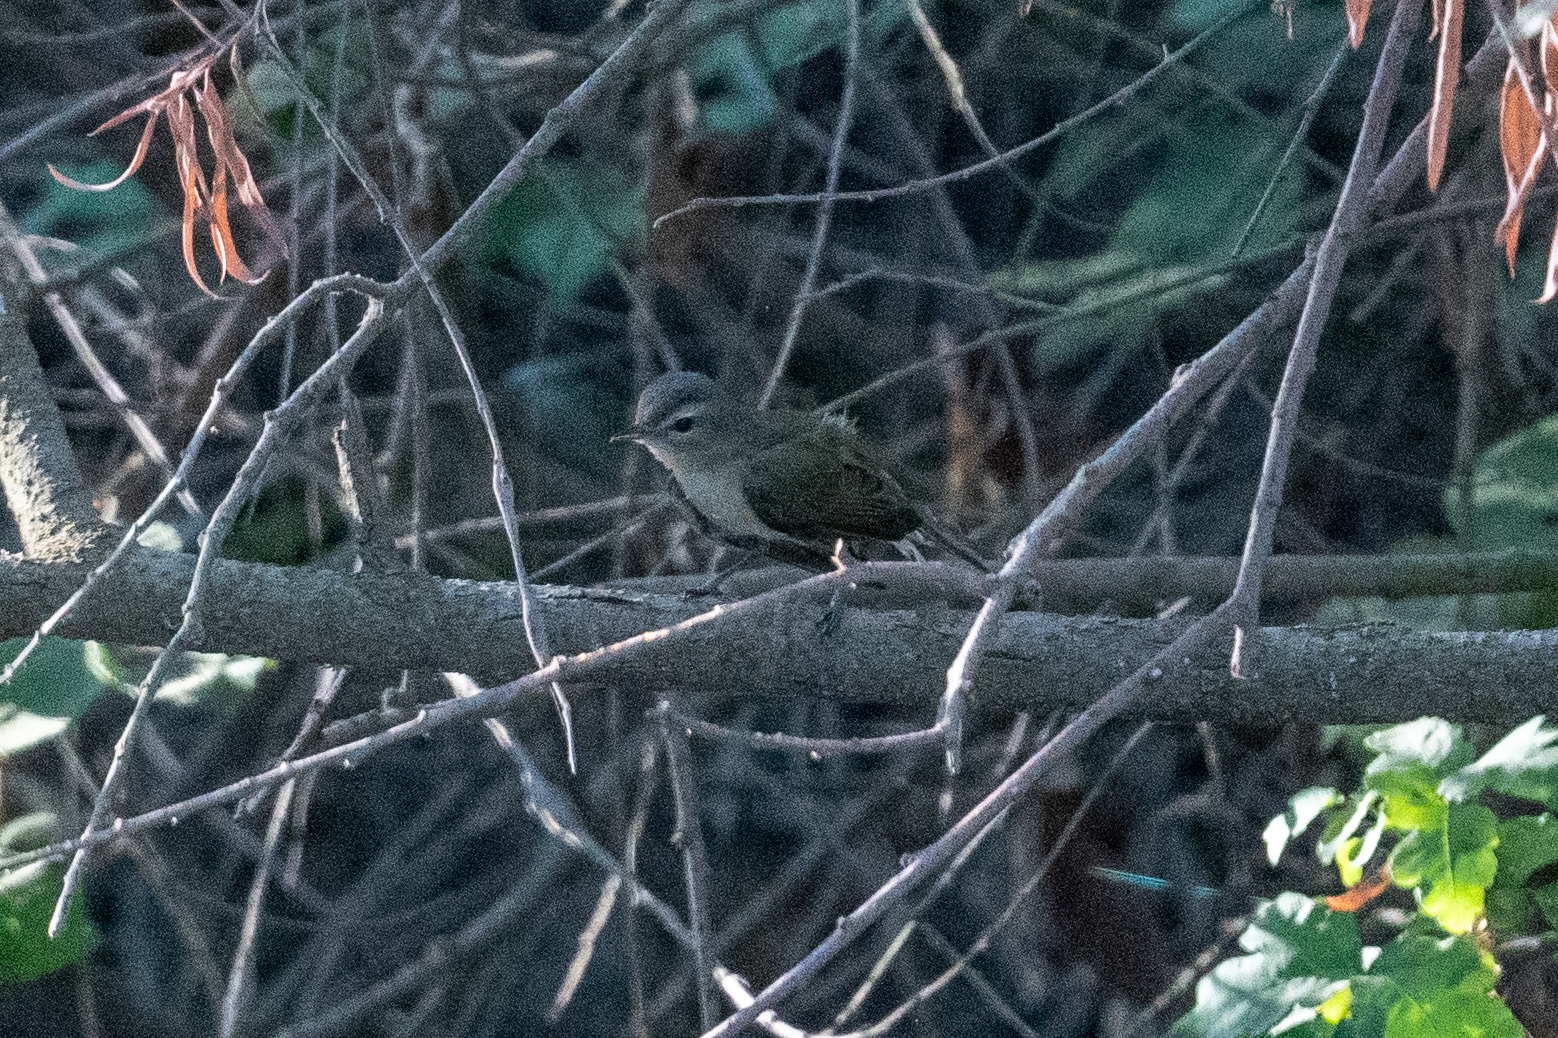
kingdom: Animalia
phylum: Chordata
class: Aves
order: Passeriformes
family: Vireonidae
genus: Vireo
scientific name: Vireo gilvus
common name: Warbling vireo
